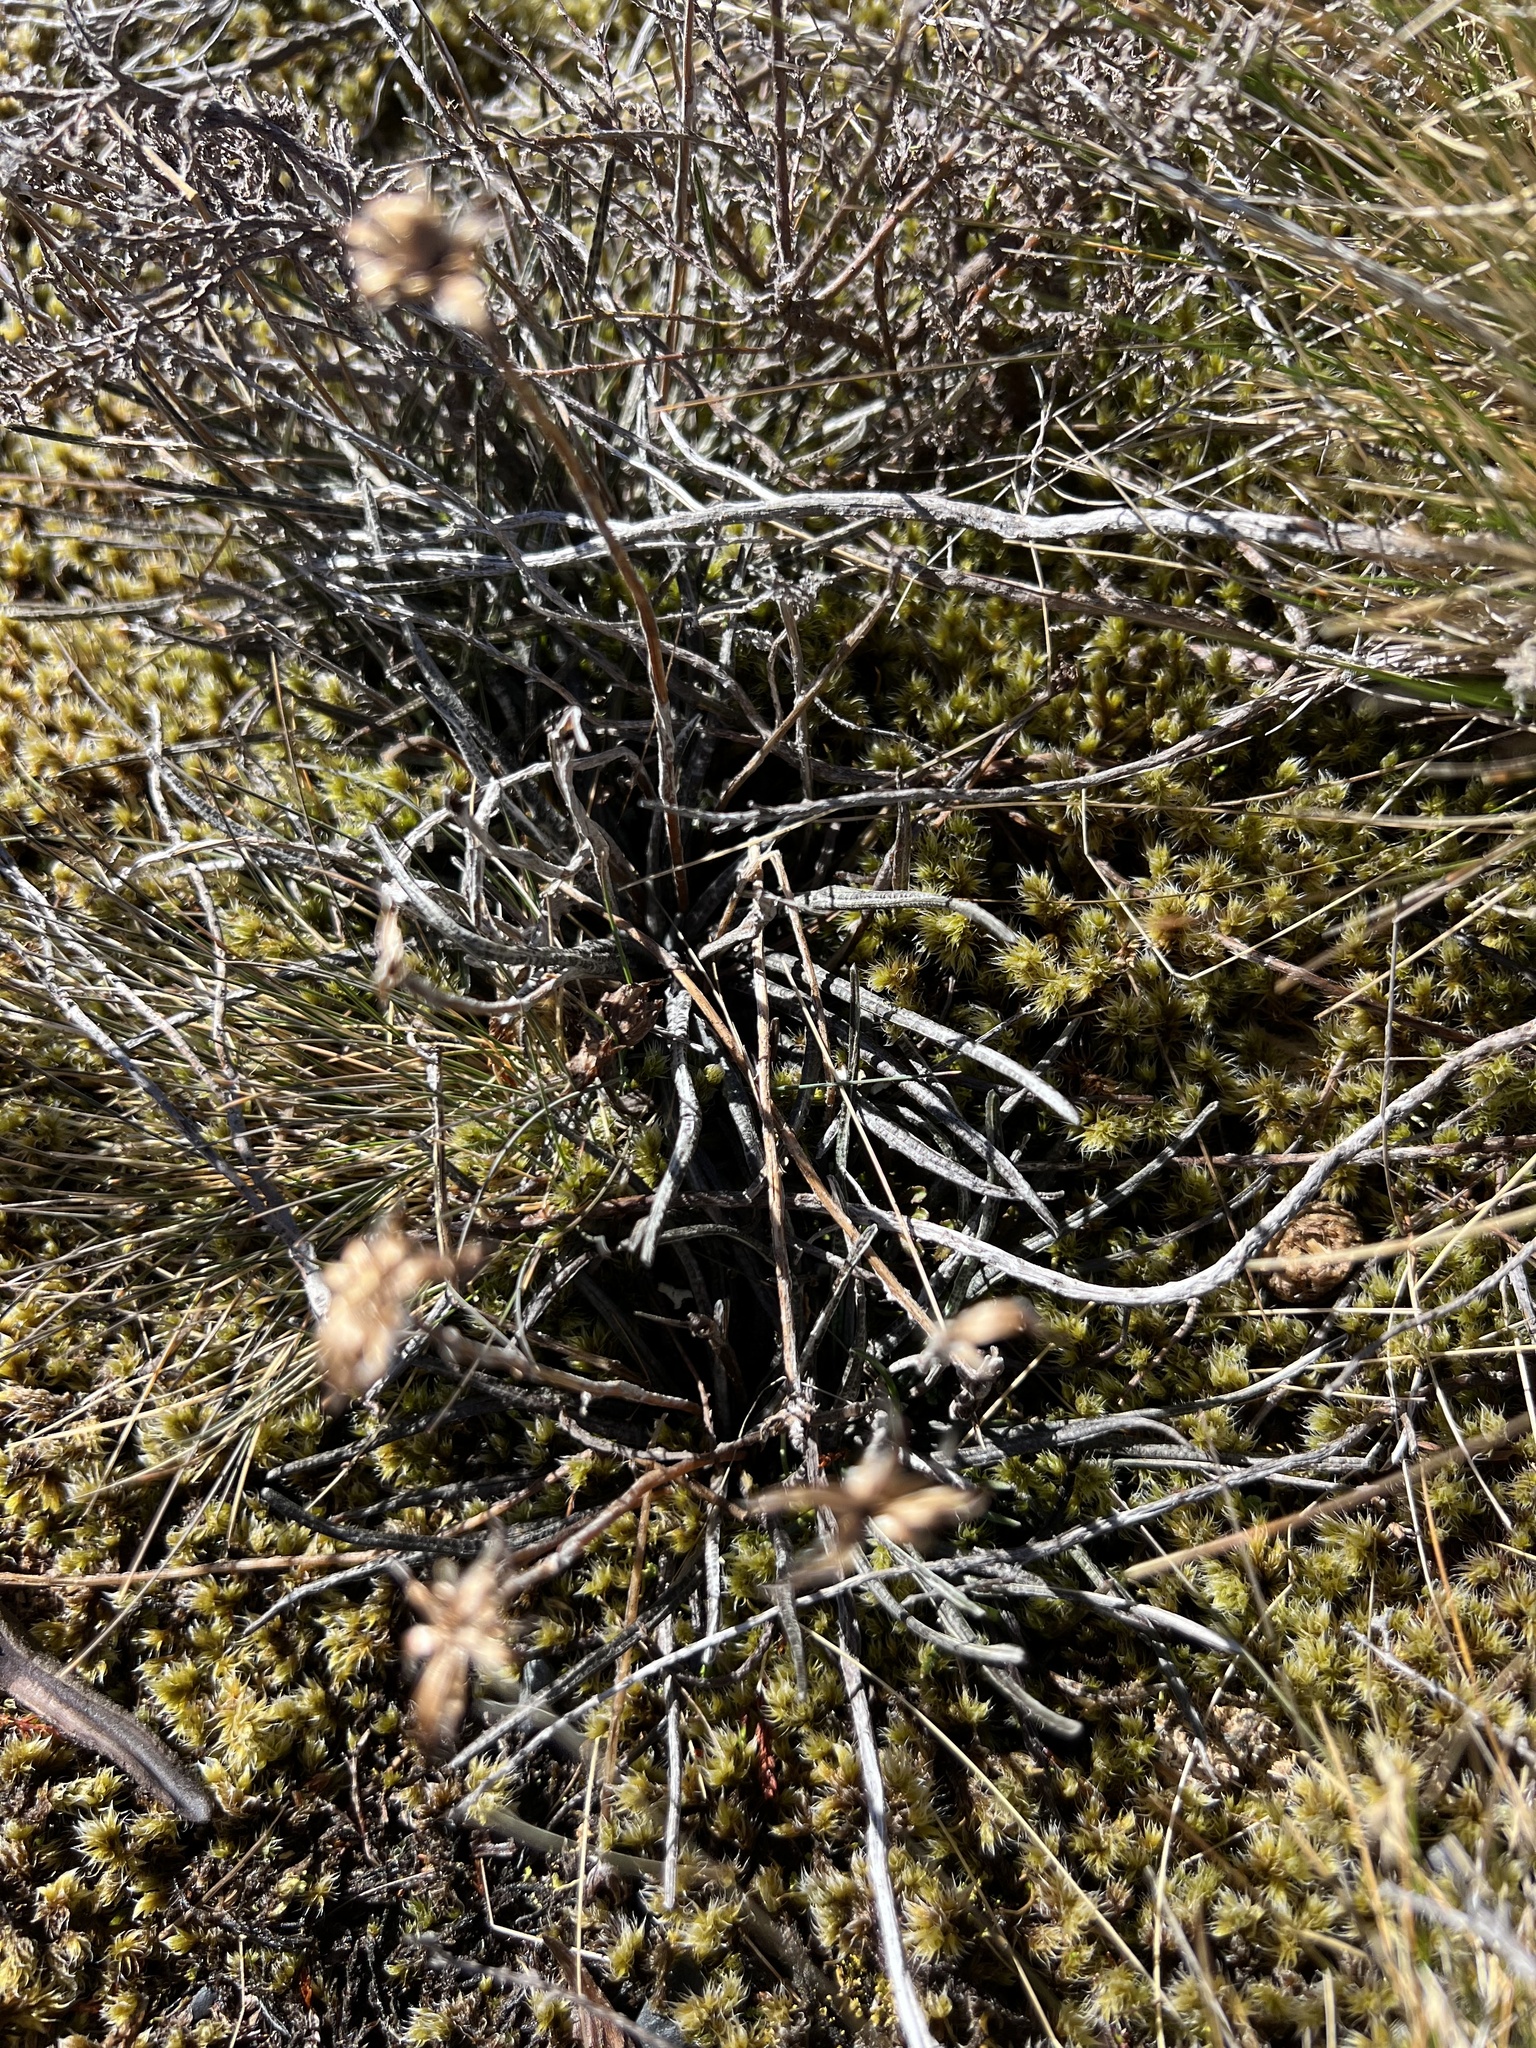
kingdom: Plantae
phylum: Tracheophyta
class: Magnoliopsida
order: Asterales
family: Asteraceae
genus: Celmisia
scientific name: Celmisia gracilenta
